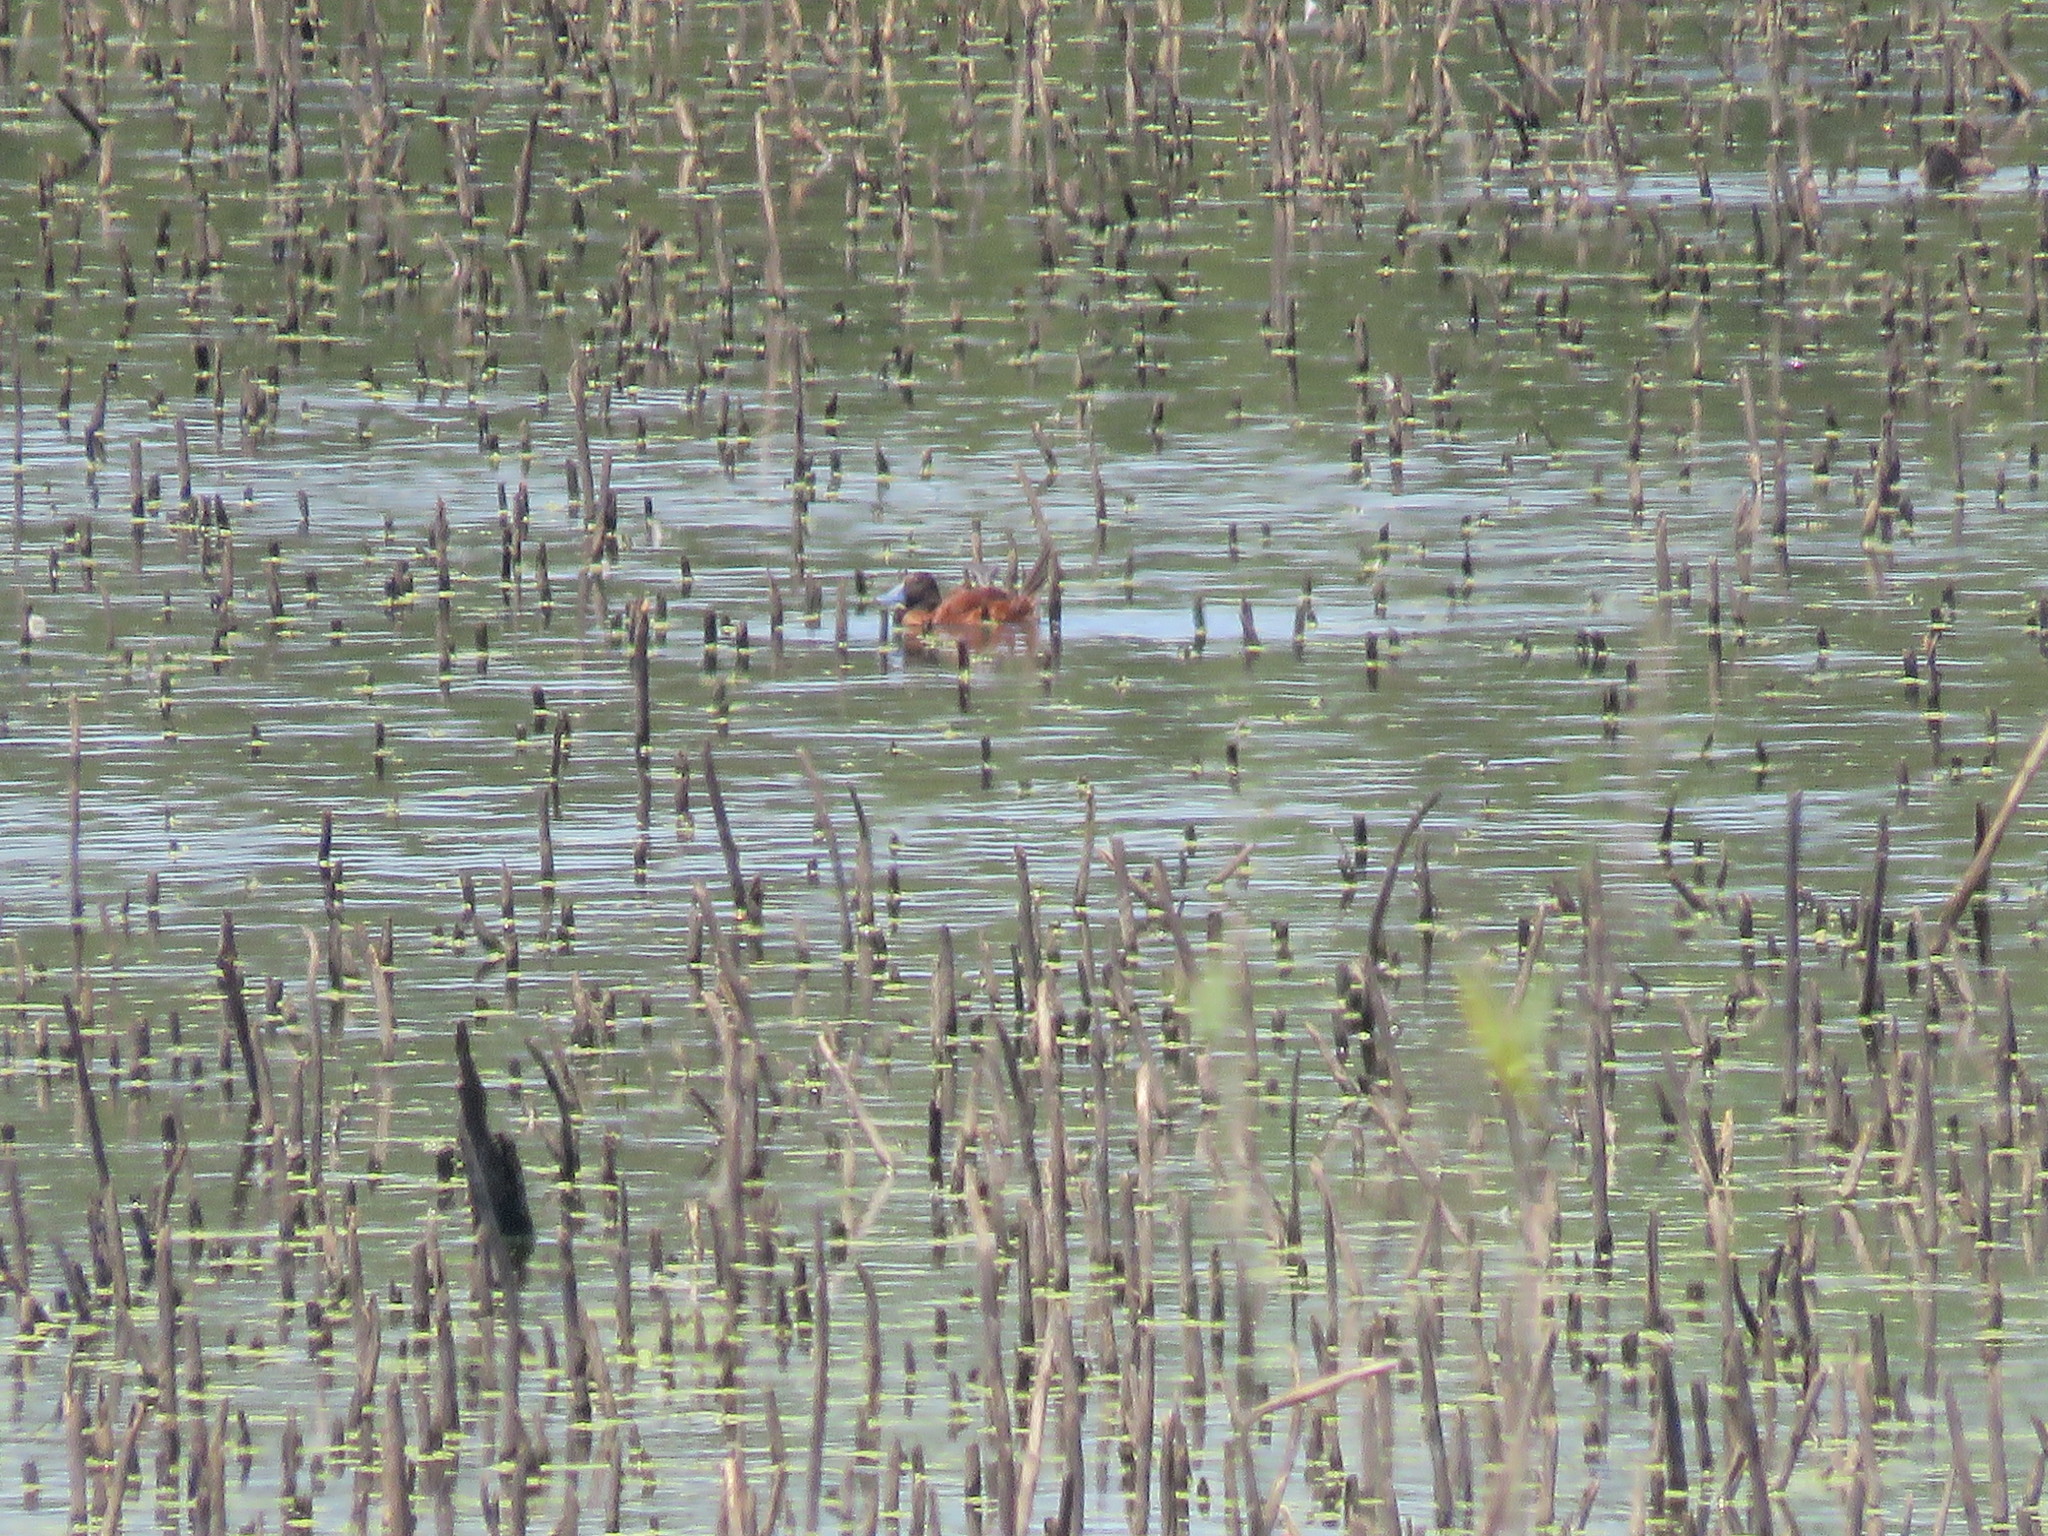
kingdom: Animalia
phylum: Chordata
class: Aves
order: Anseriformes
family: Anatidae
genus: Oxyura
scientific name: Oxyura vittata
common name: Lake duck
